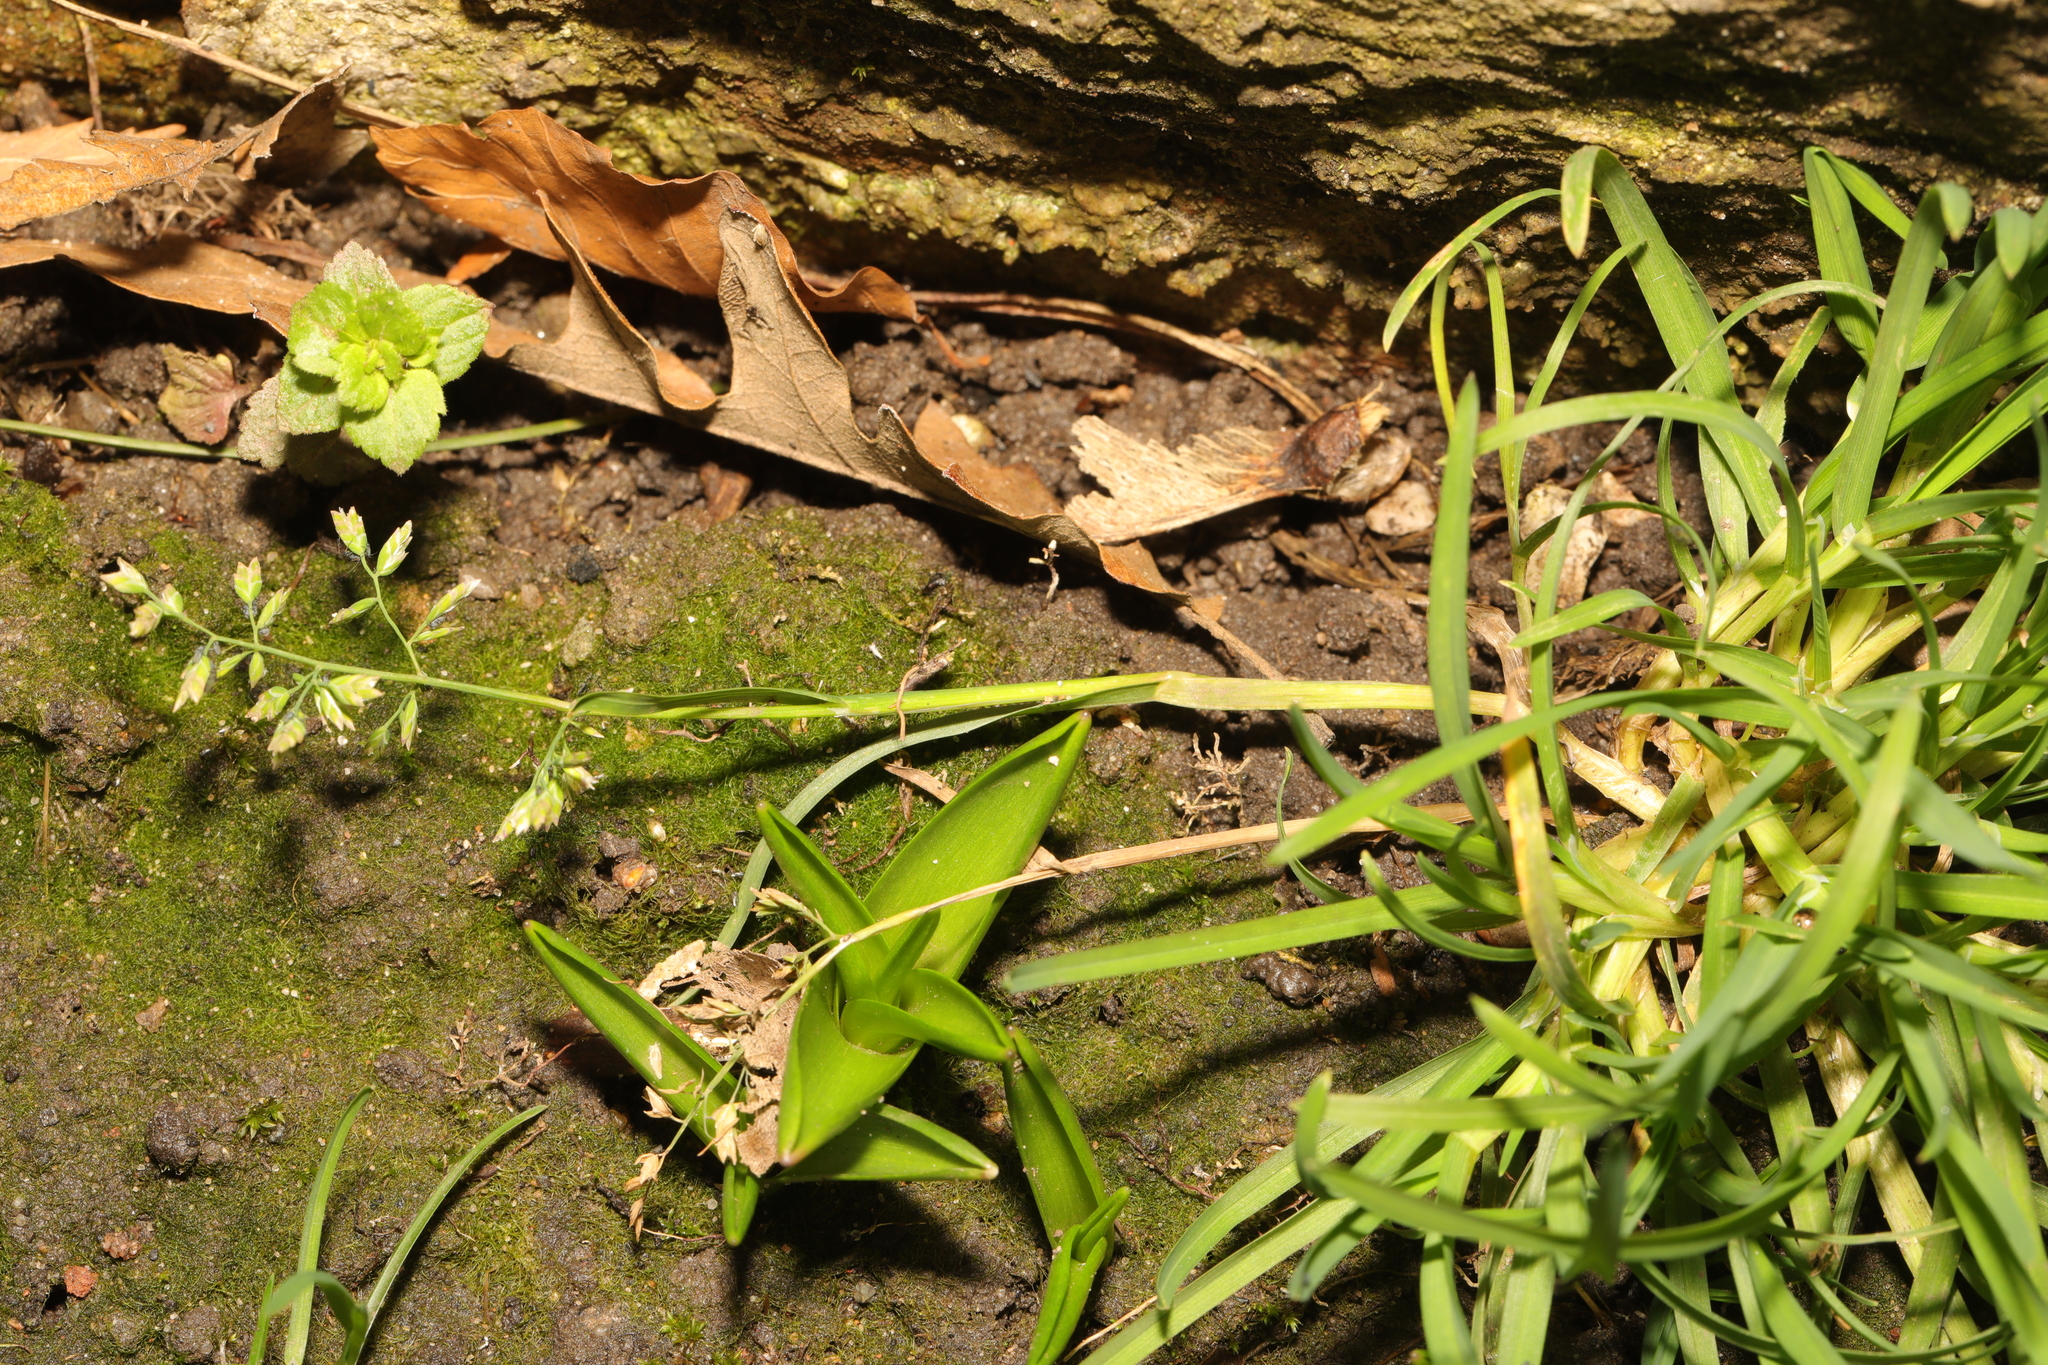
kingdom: Plantae
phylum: Tracheophyta
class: Liliopsida
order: Poales
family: Poaceae
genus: Poa
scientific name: Poa annua
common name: Annual bluegrass
